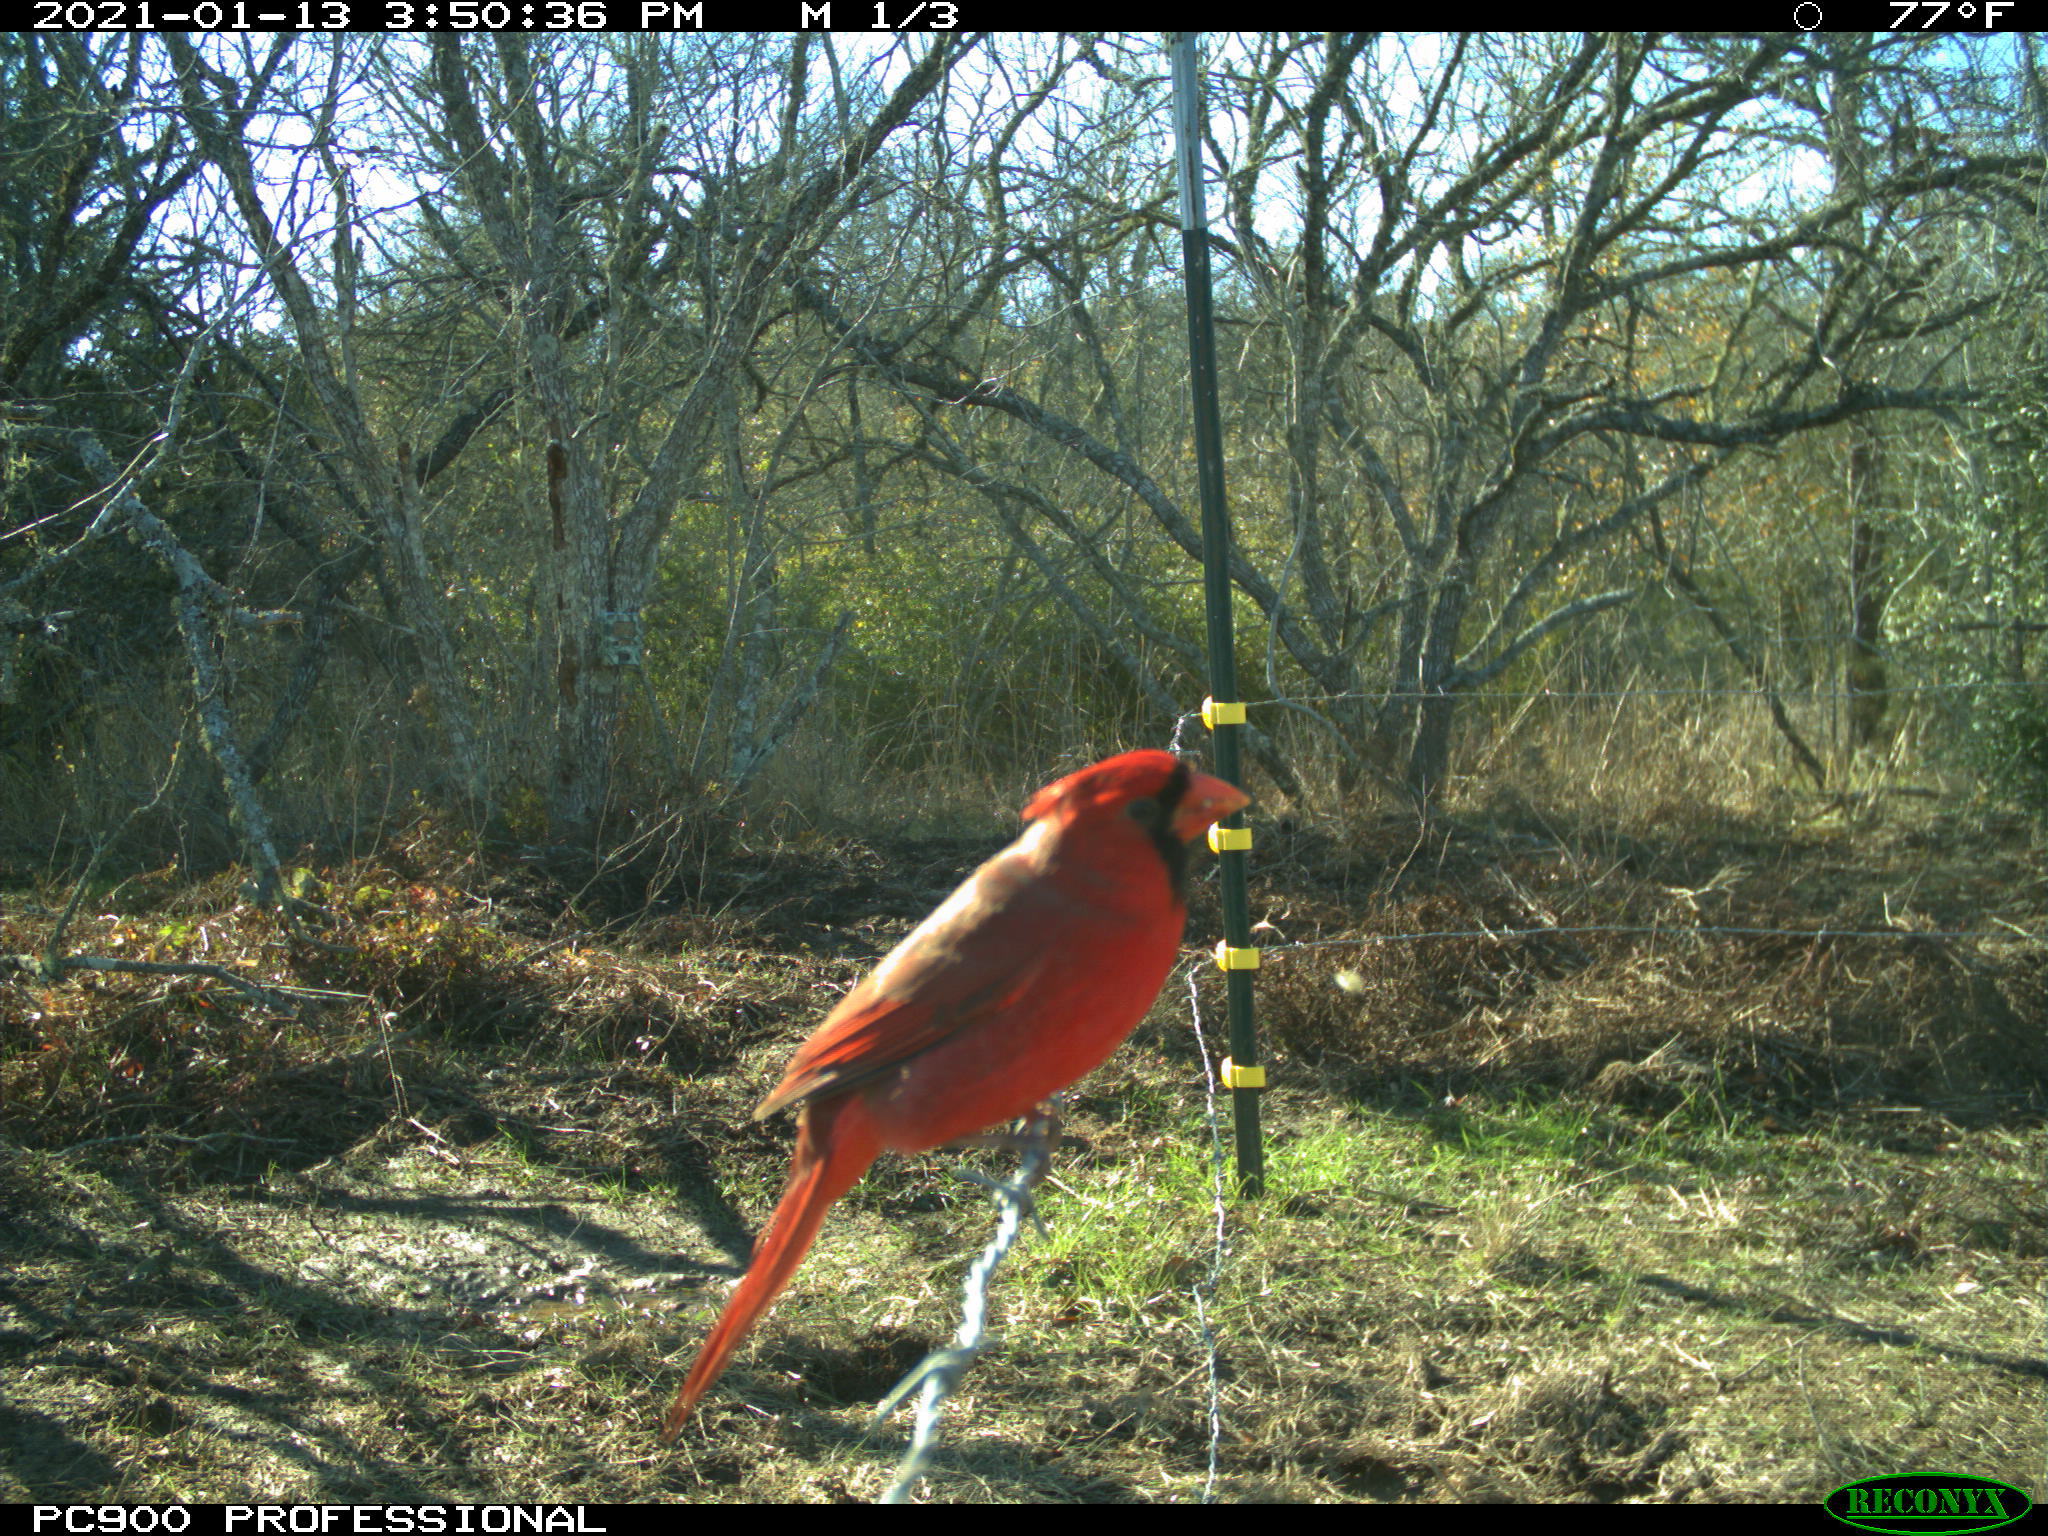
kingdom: Animalia
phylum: Chordata
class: Aves
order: Passeriformes
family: Cardinalidae
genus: Cardinalis
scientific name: Cardinalis cardinalis
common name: Northern cardinal
